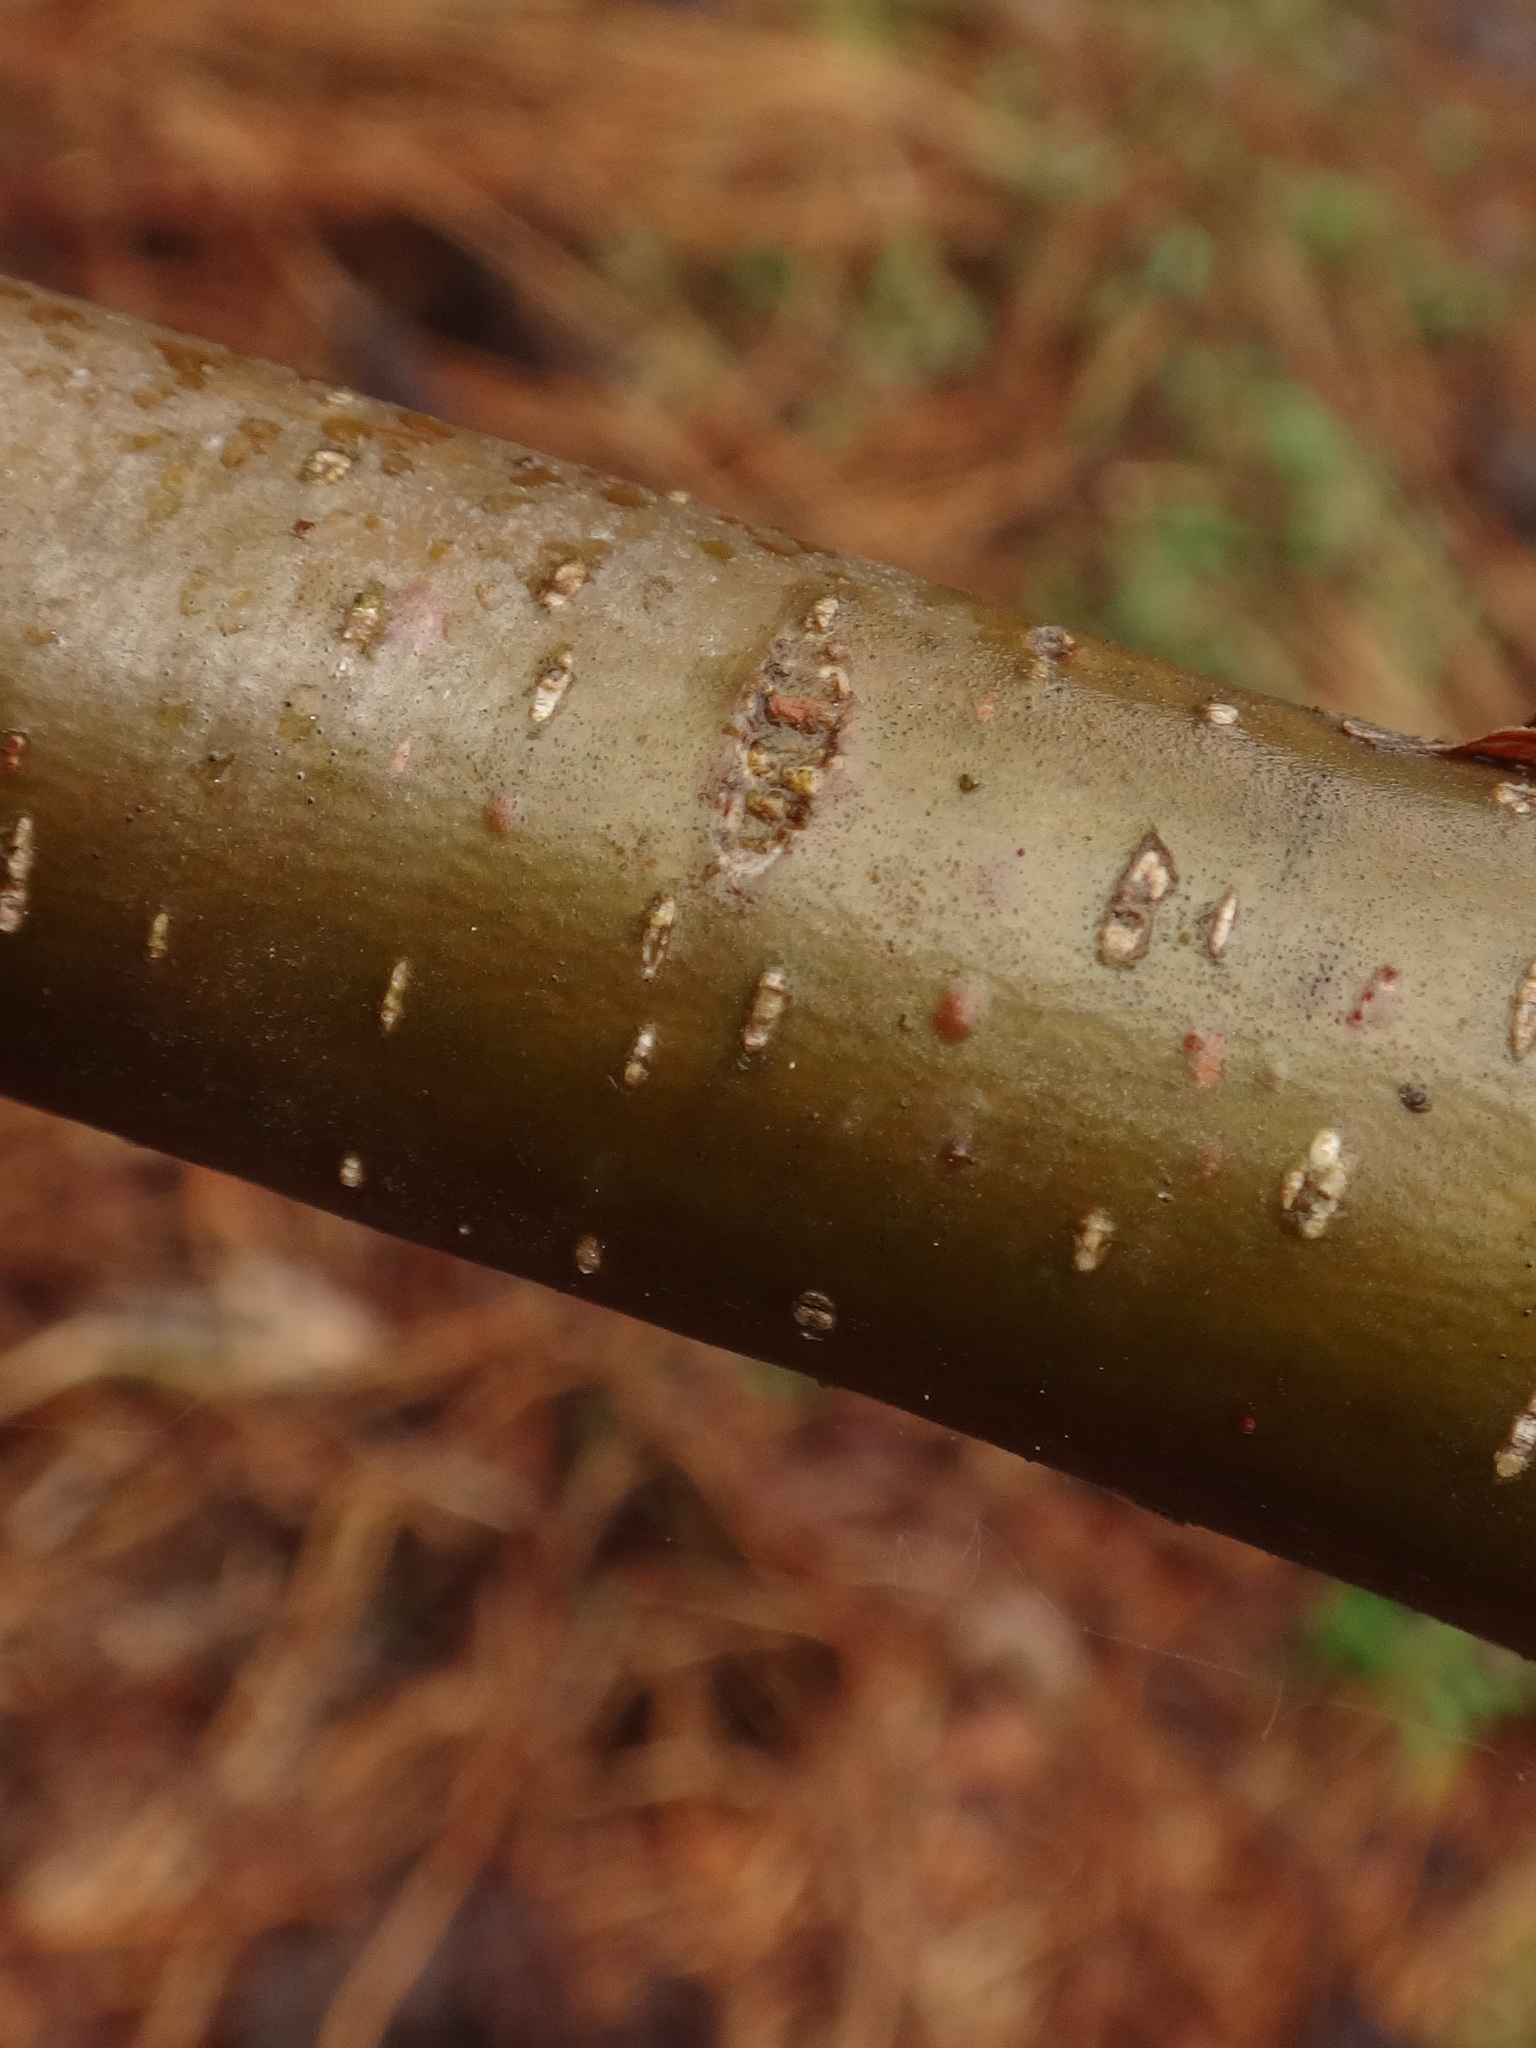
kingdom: Plantae
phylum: Tracheophyta
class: Magnoliopsida
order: Fagales
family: Betulaceae
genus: Corylus
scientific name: Corylus avellana
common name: European hazel
